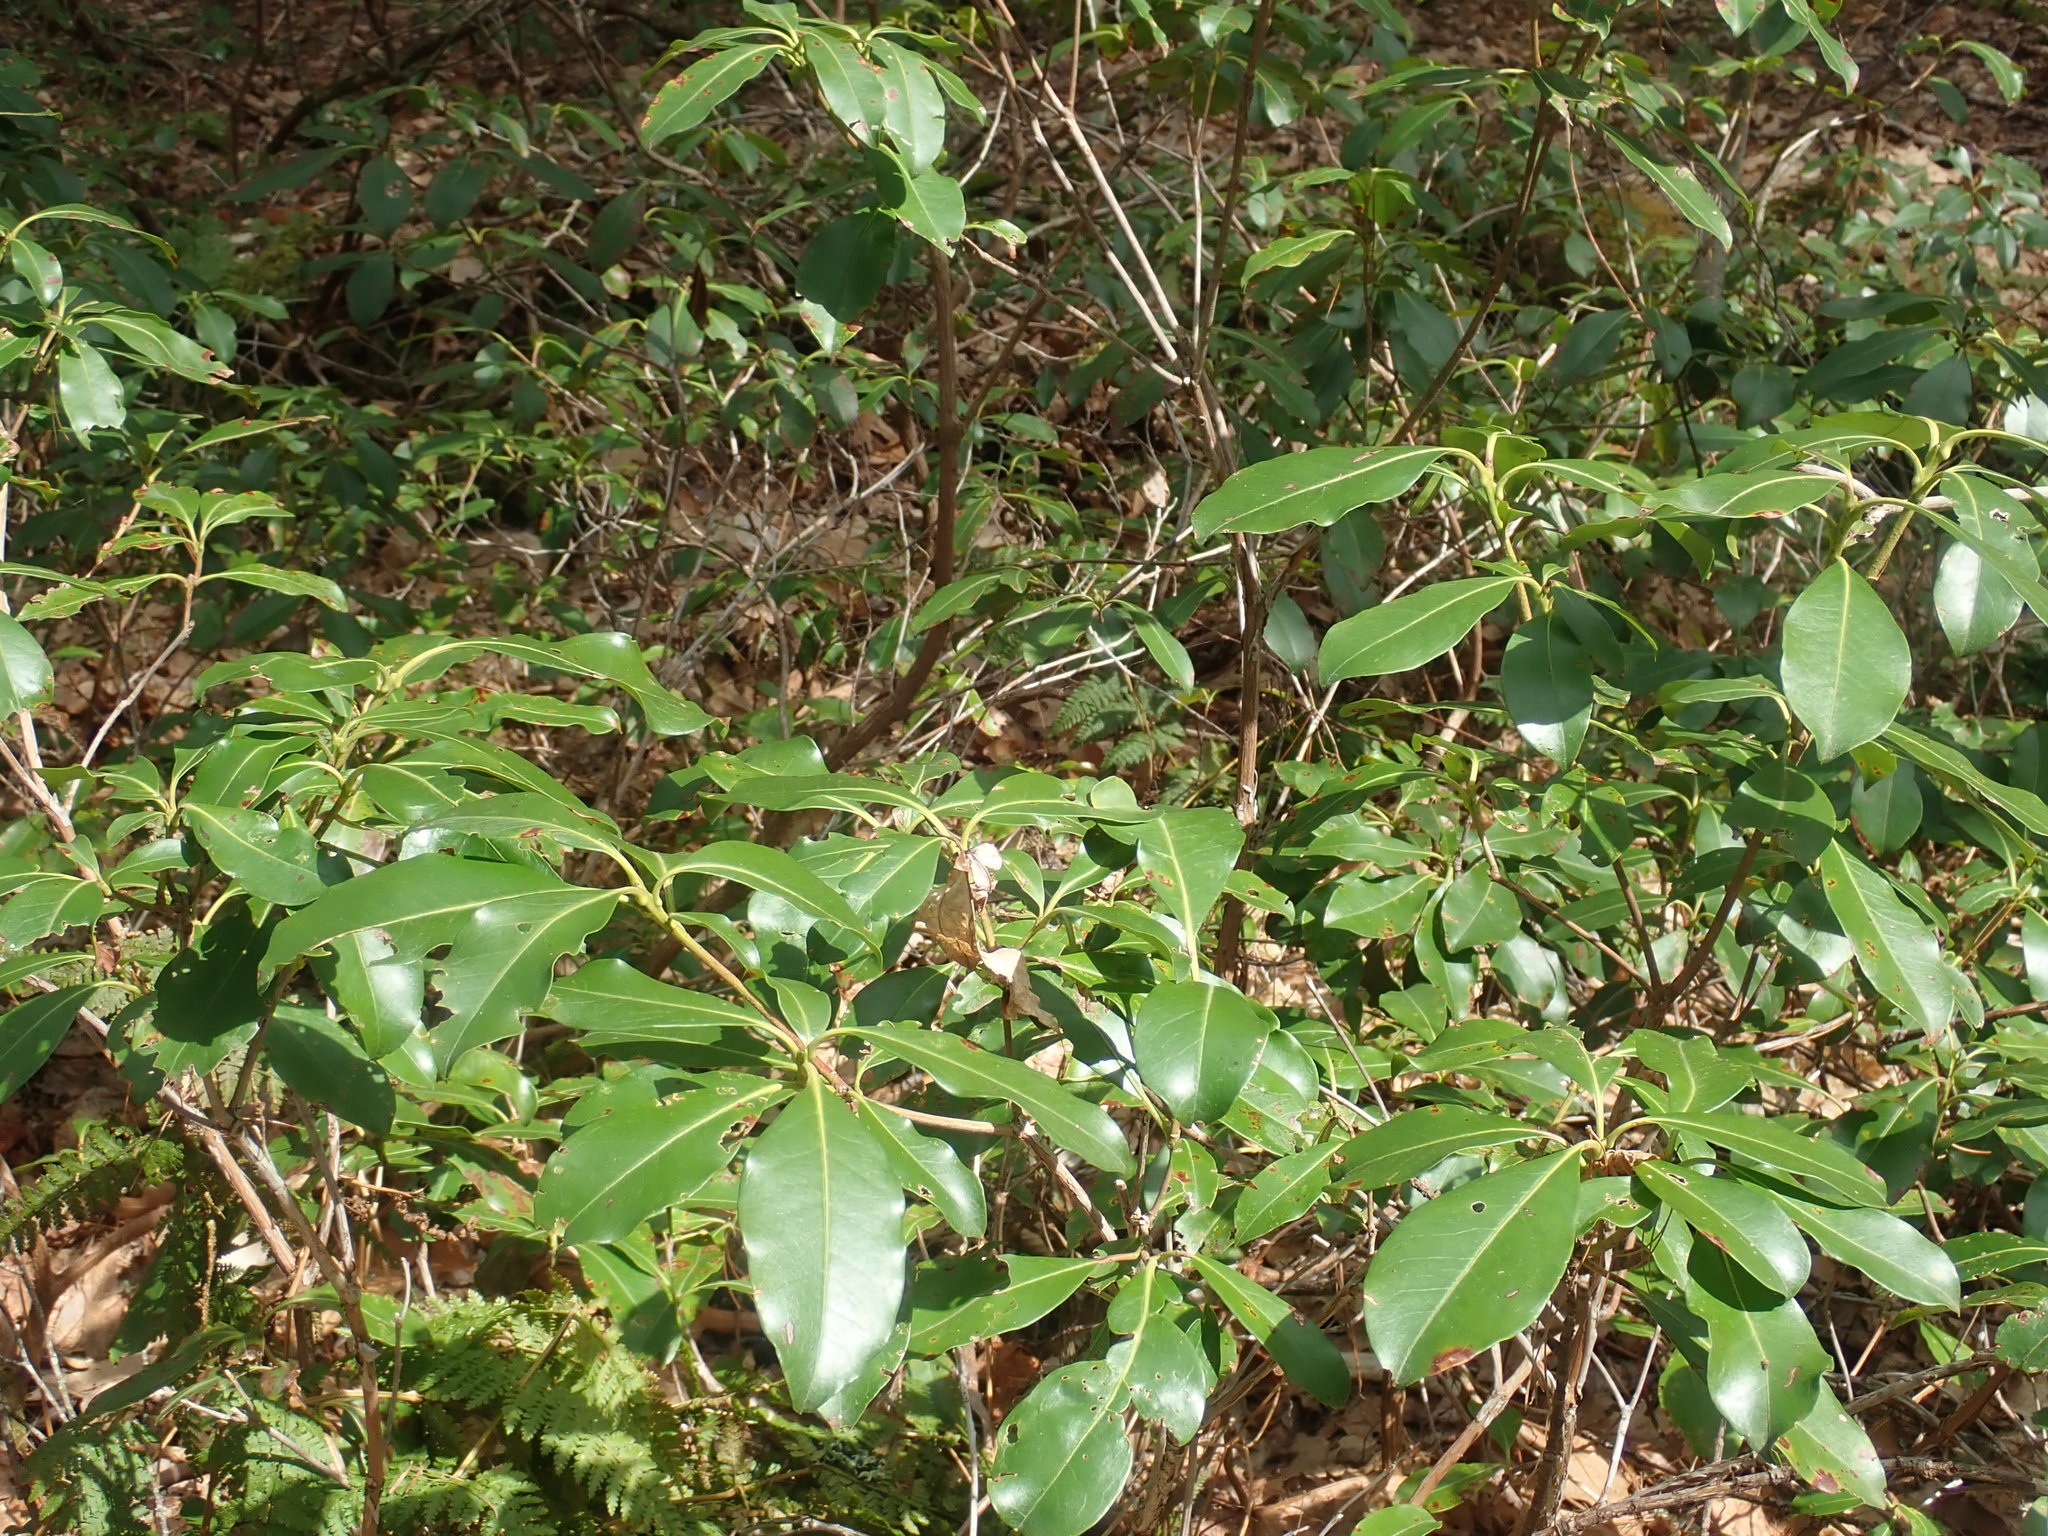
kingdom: Plantae
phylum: Tracheophyta
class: Magnoliopsida
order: Ericales
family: Ericaceae
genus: Kalmia
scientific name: Kalmia latifolia
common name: Mountain-laurel
